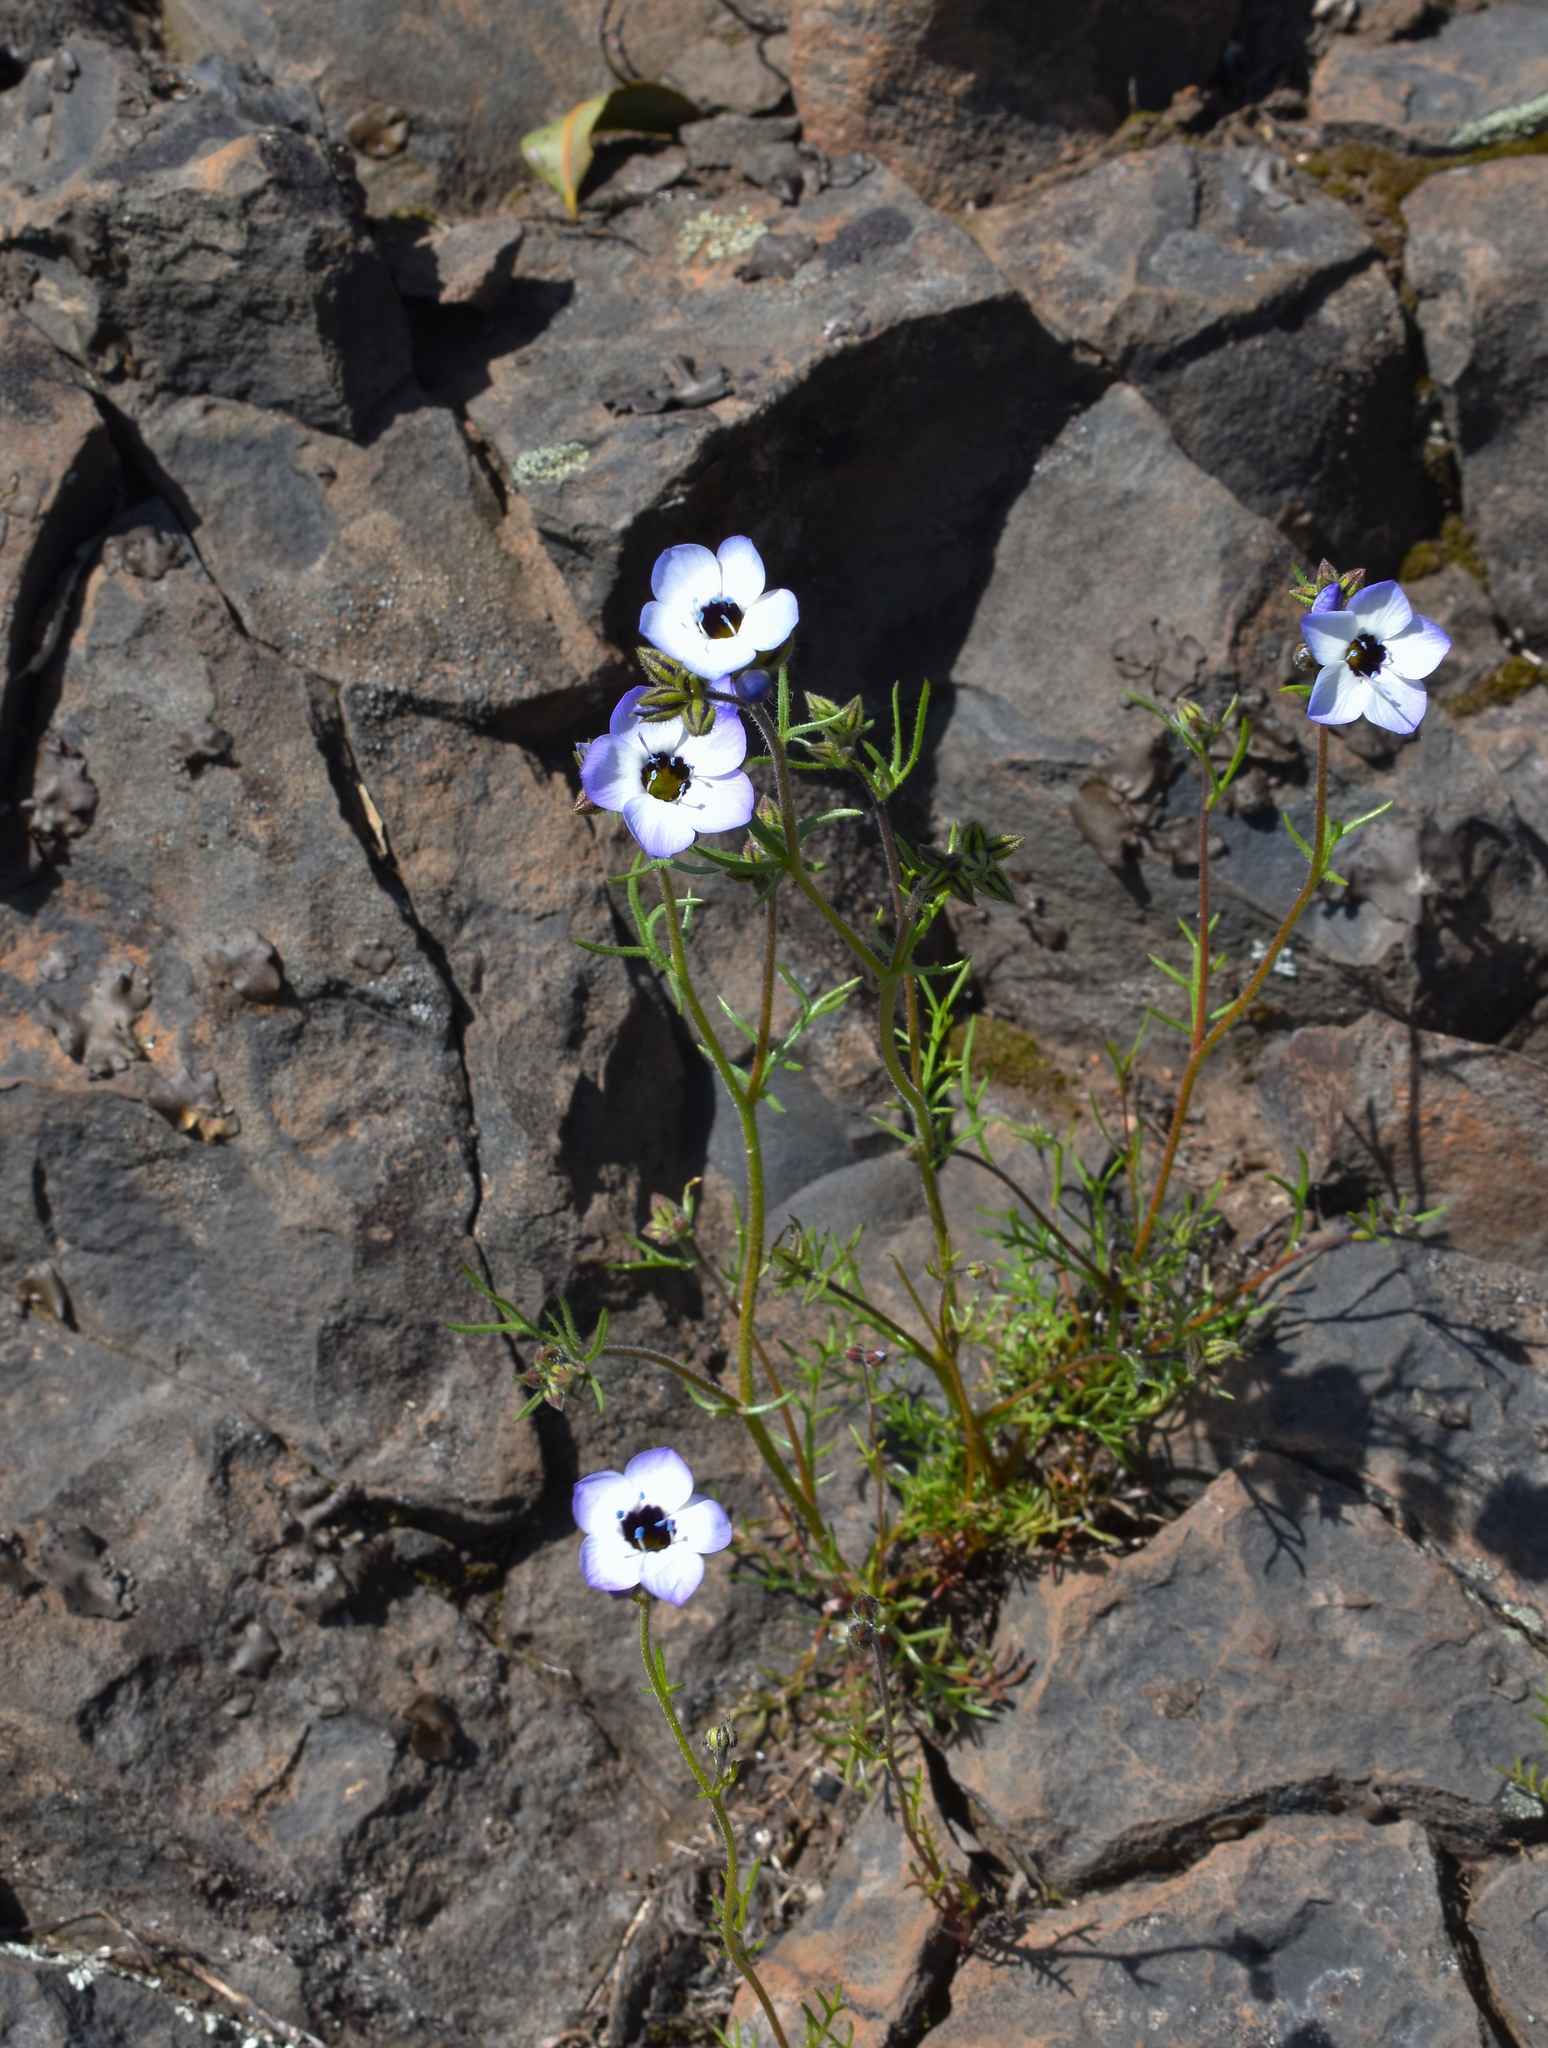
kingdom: Plantae
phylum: Tracheophyta
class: Magnoliopsida
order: Ericales
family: Polemoniaceae
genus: Gilia
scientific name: Gilia tricolor
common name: Bird's-eyes
